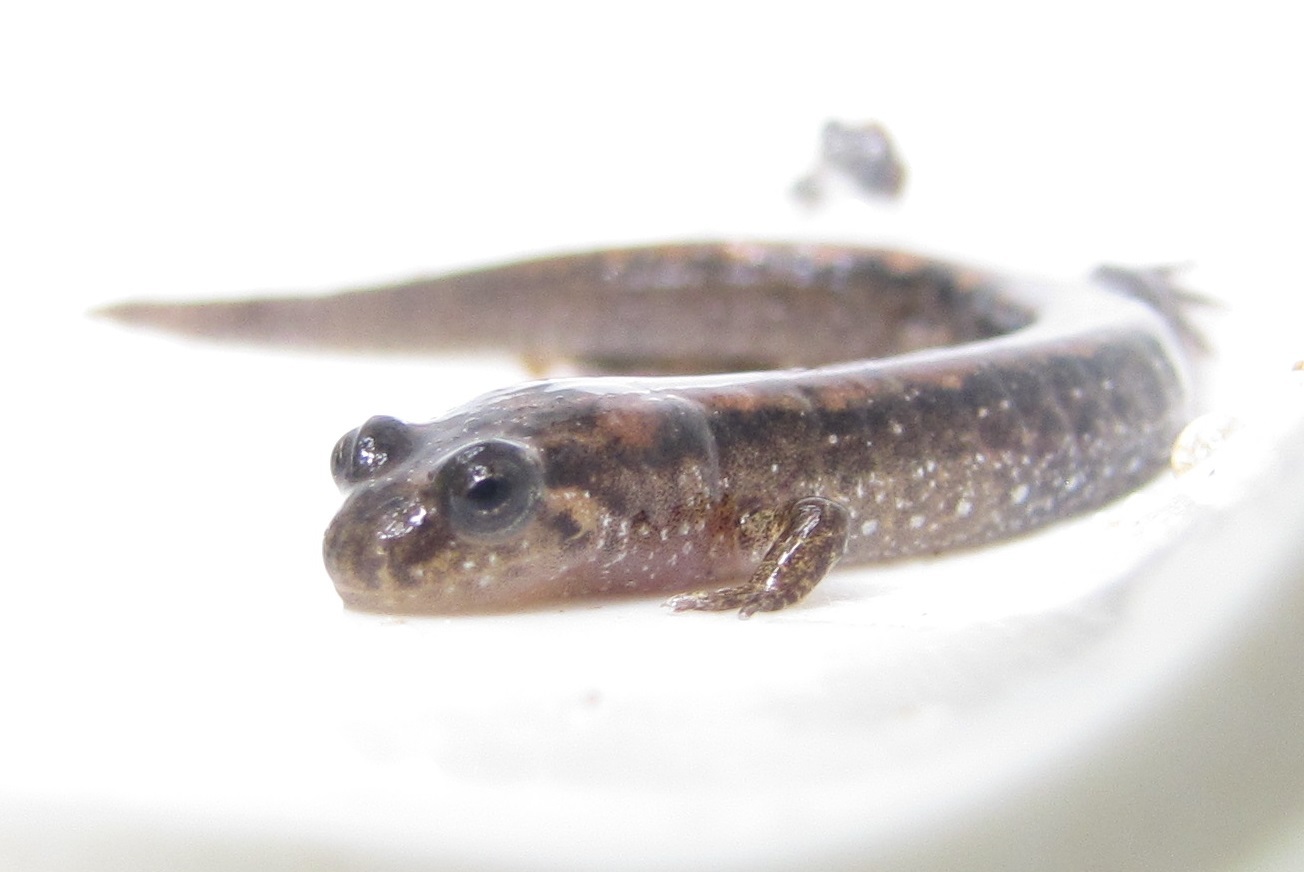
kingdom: Animalia
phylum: Chordata
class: Amphibia
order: Caudata
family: Plethodontidae
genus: Desmognathus
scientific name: Desmognathus
